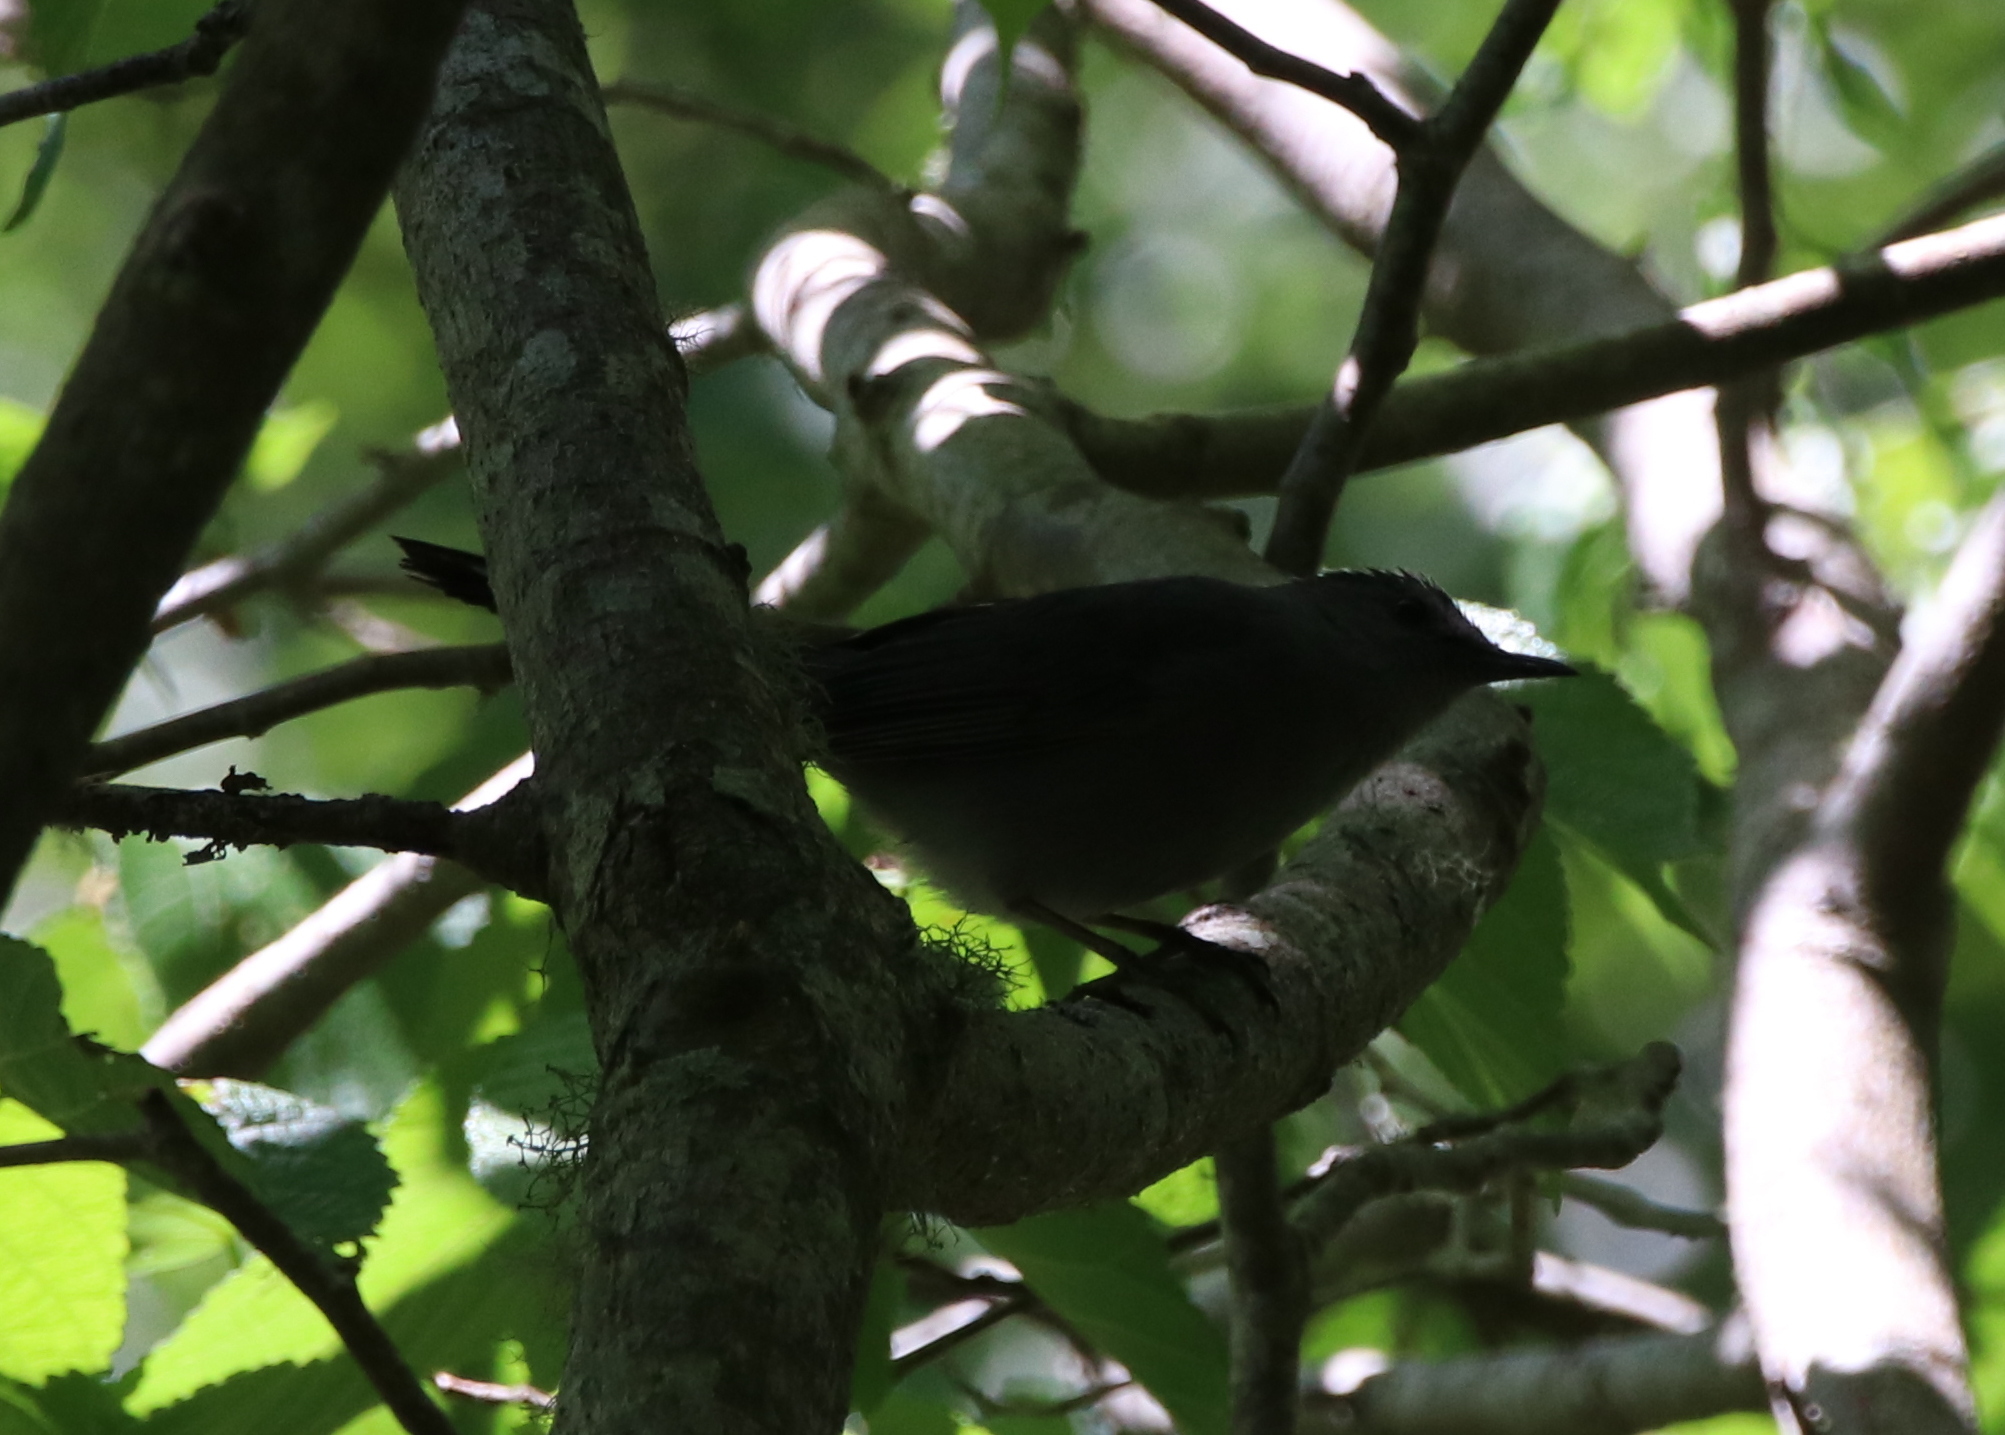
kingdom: Animalia
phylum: Chordata
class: Aves
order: Passeriformes
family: Mimidae
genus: Dumetella
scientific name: Dumetella carolinensis
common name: Gray catbird
